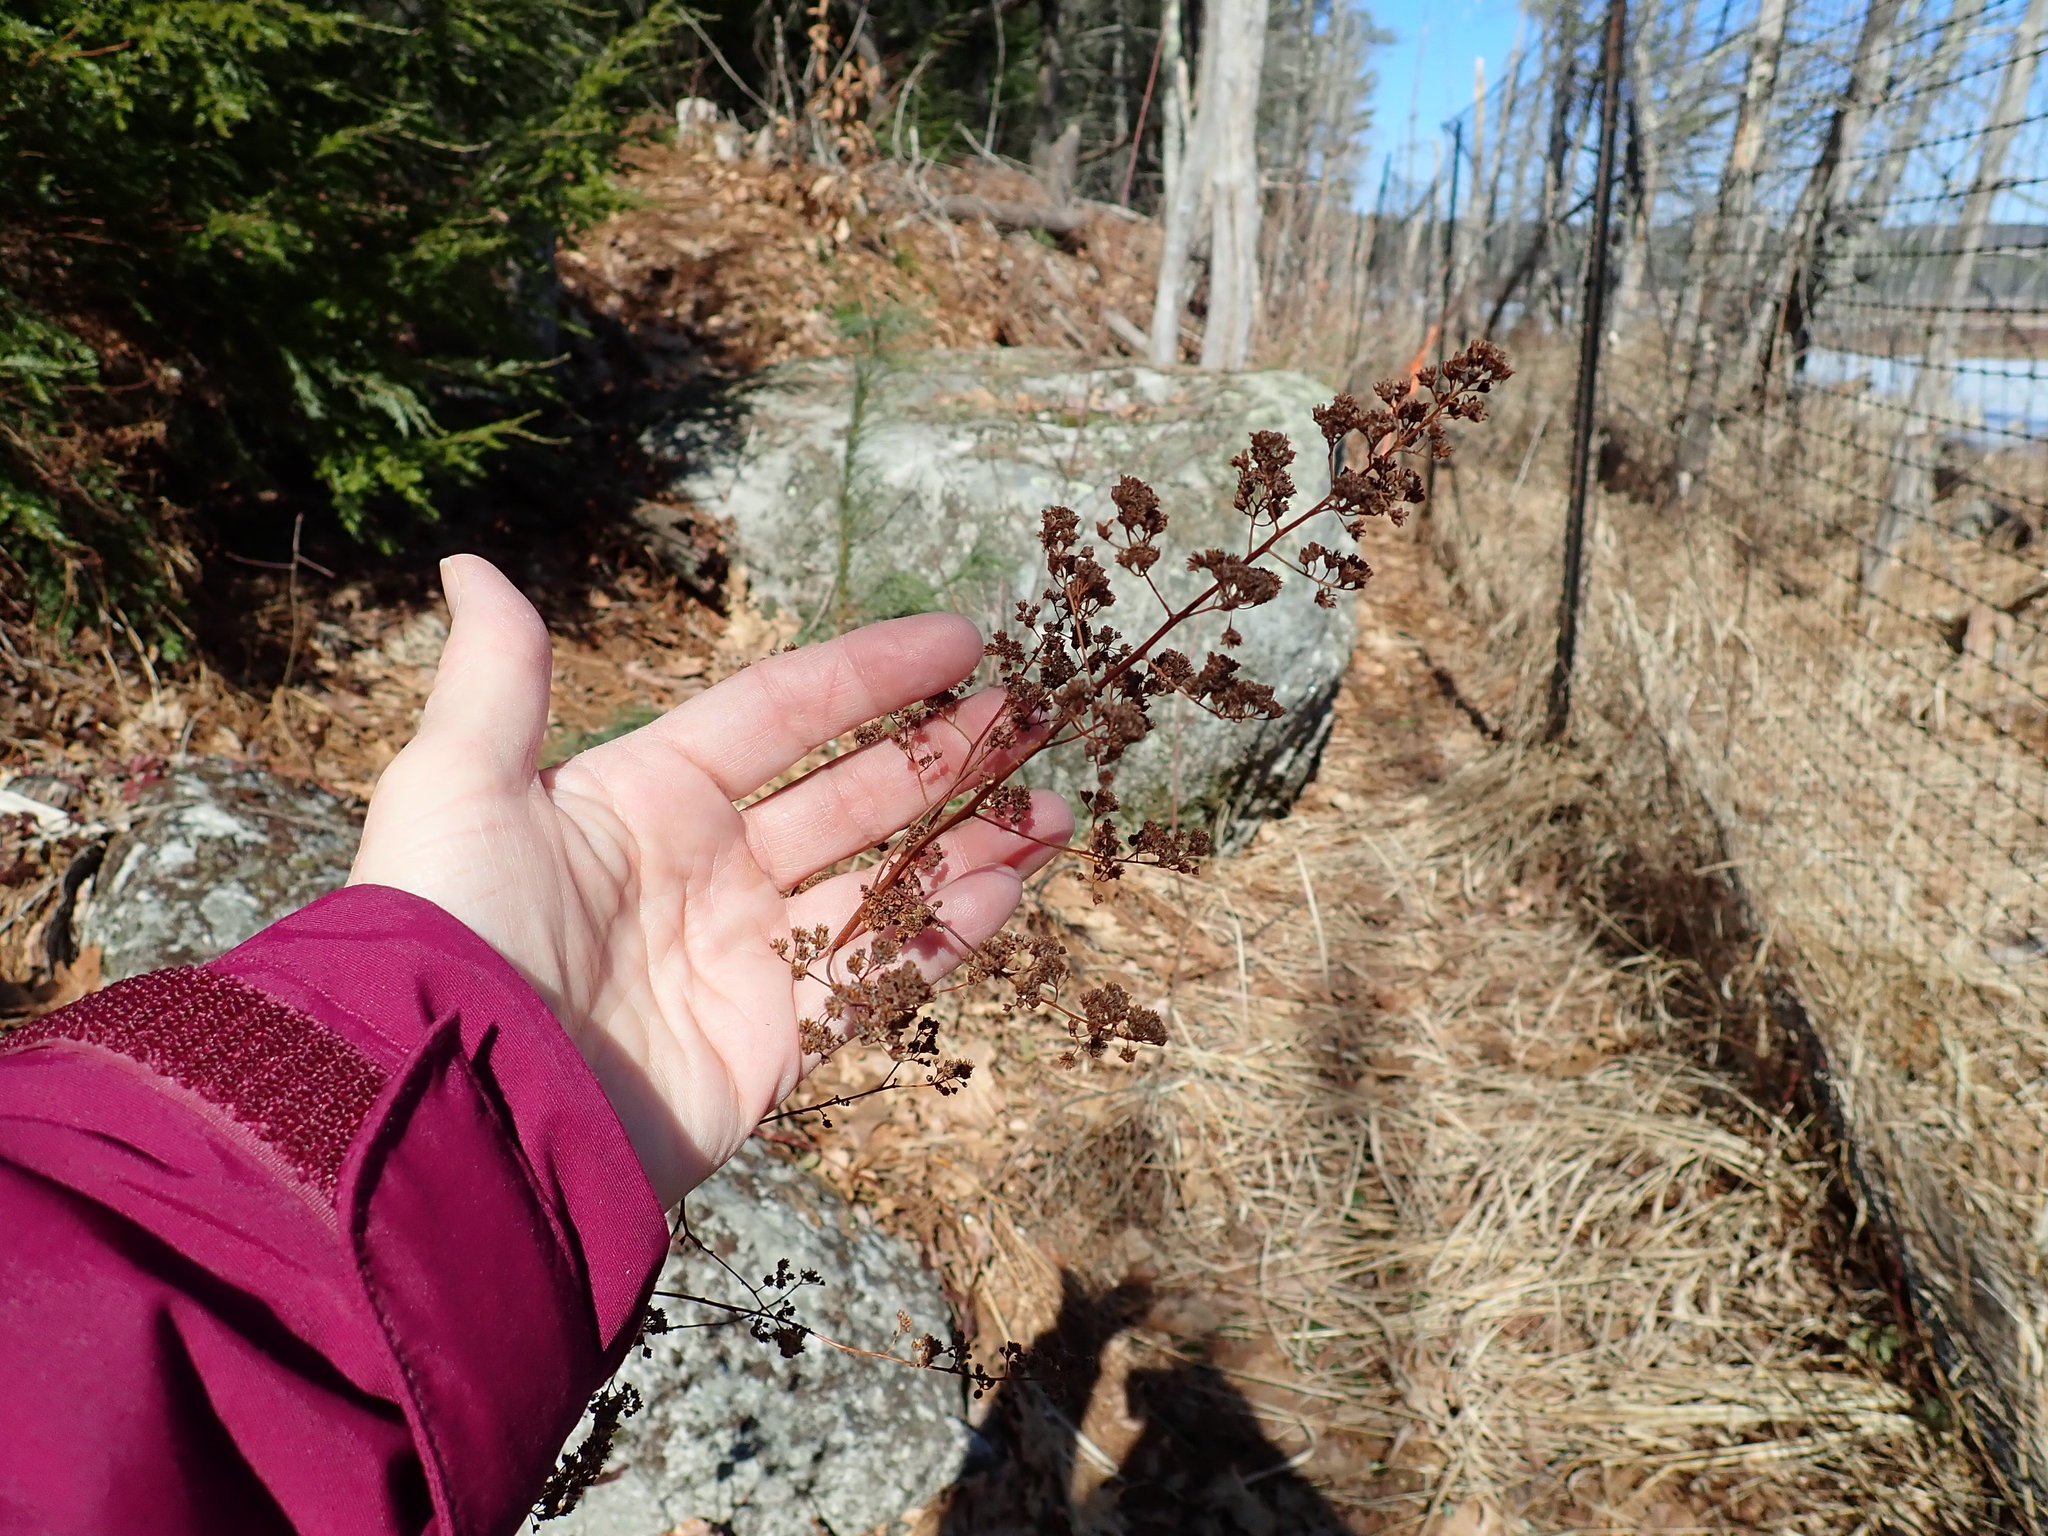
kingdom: Plantae
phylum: Tracheophyta
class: Magnoliopsida
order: Rosales
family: Rosaceae
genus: Spiraea
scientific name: Spiraea alba
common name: Pale bridewort
